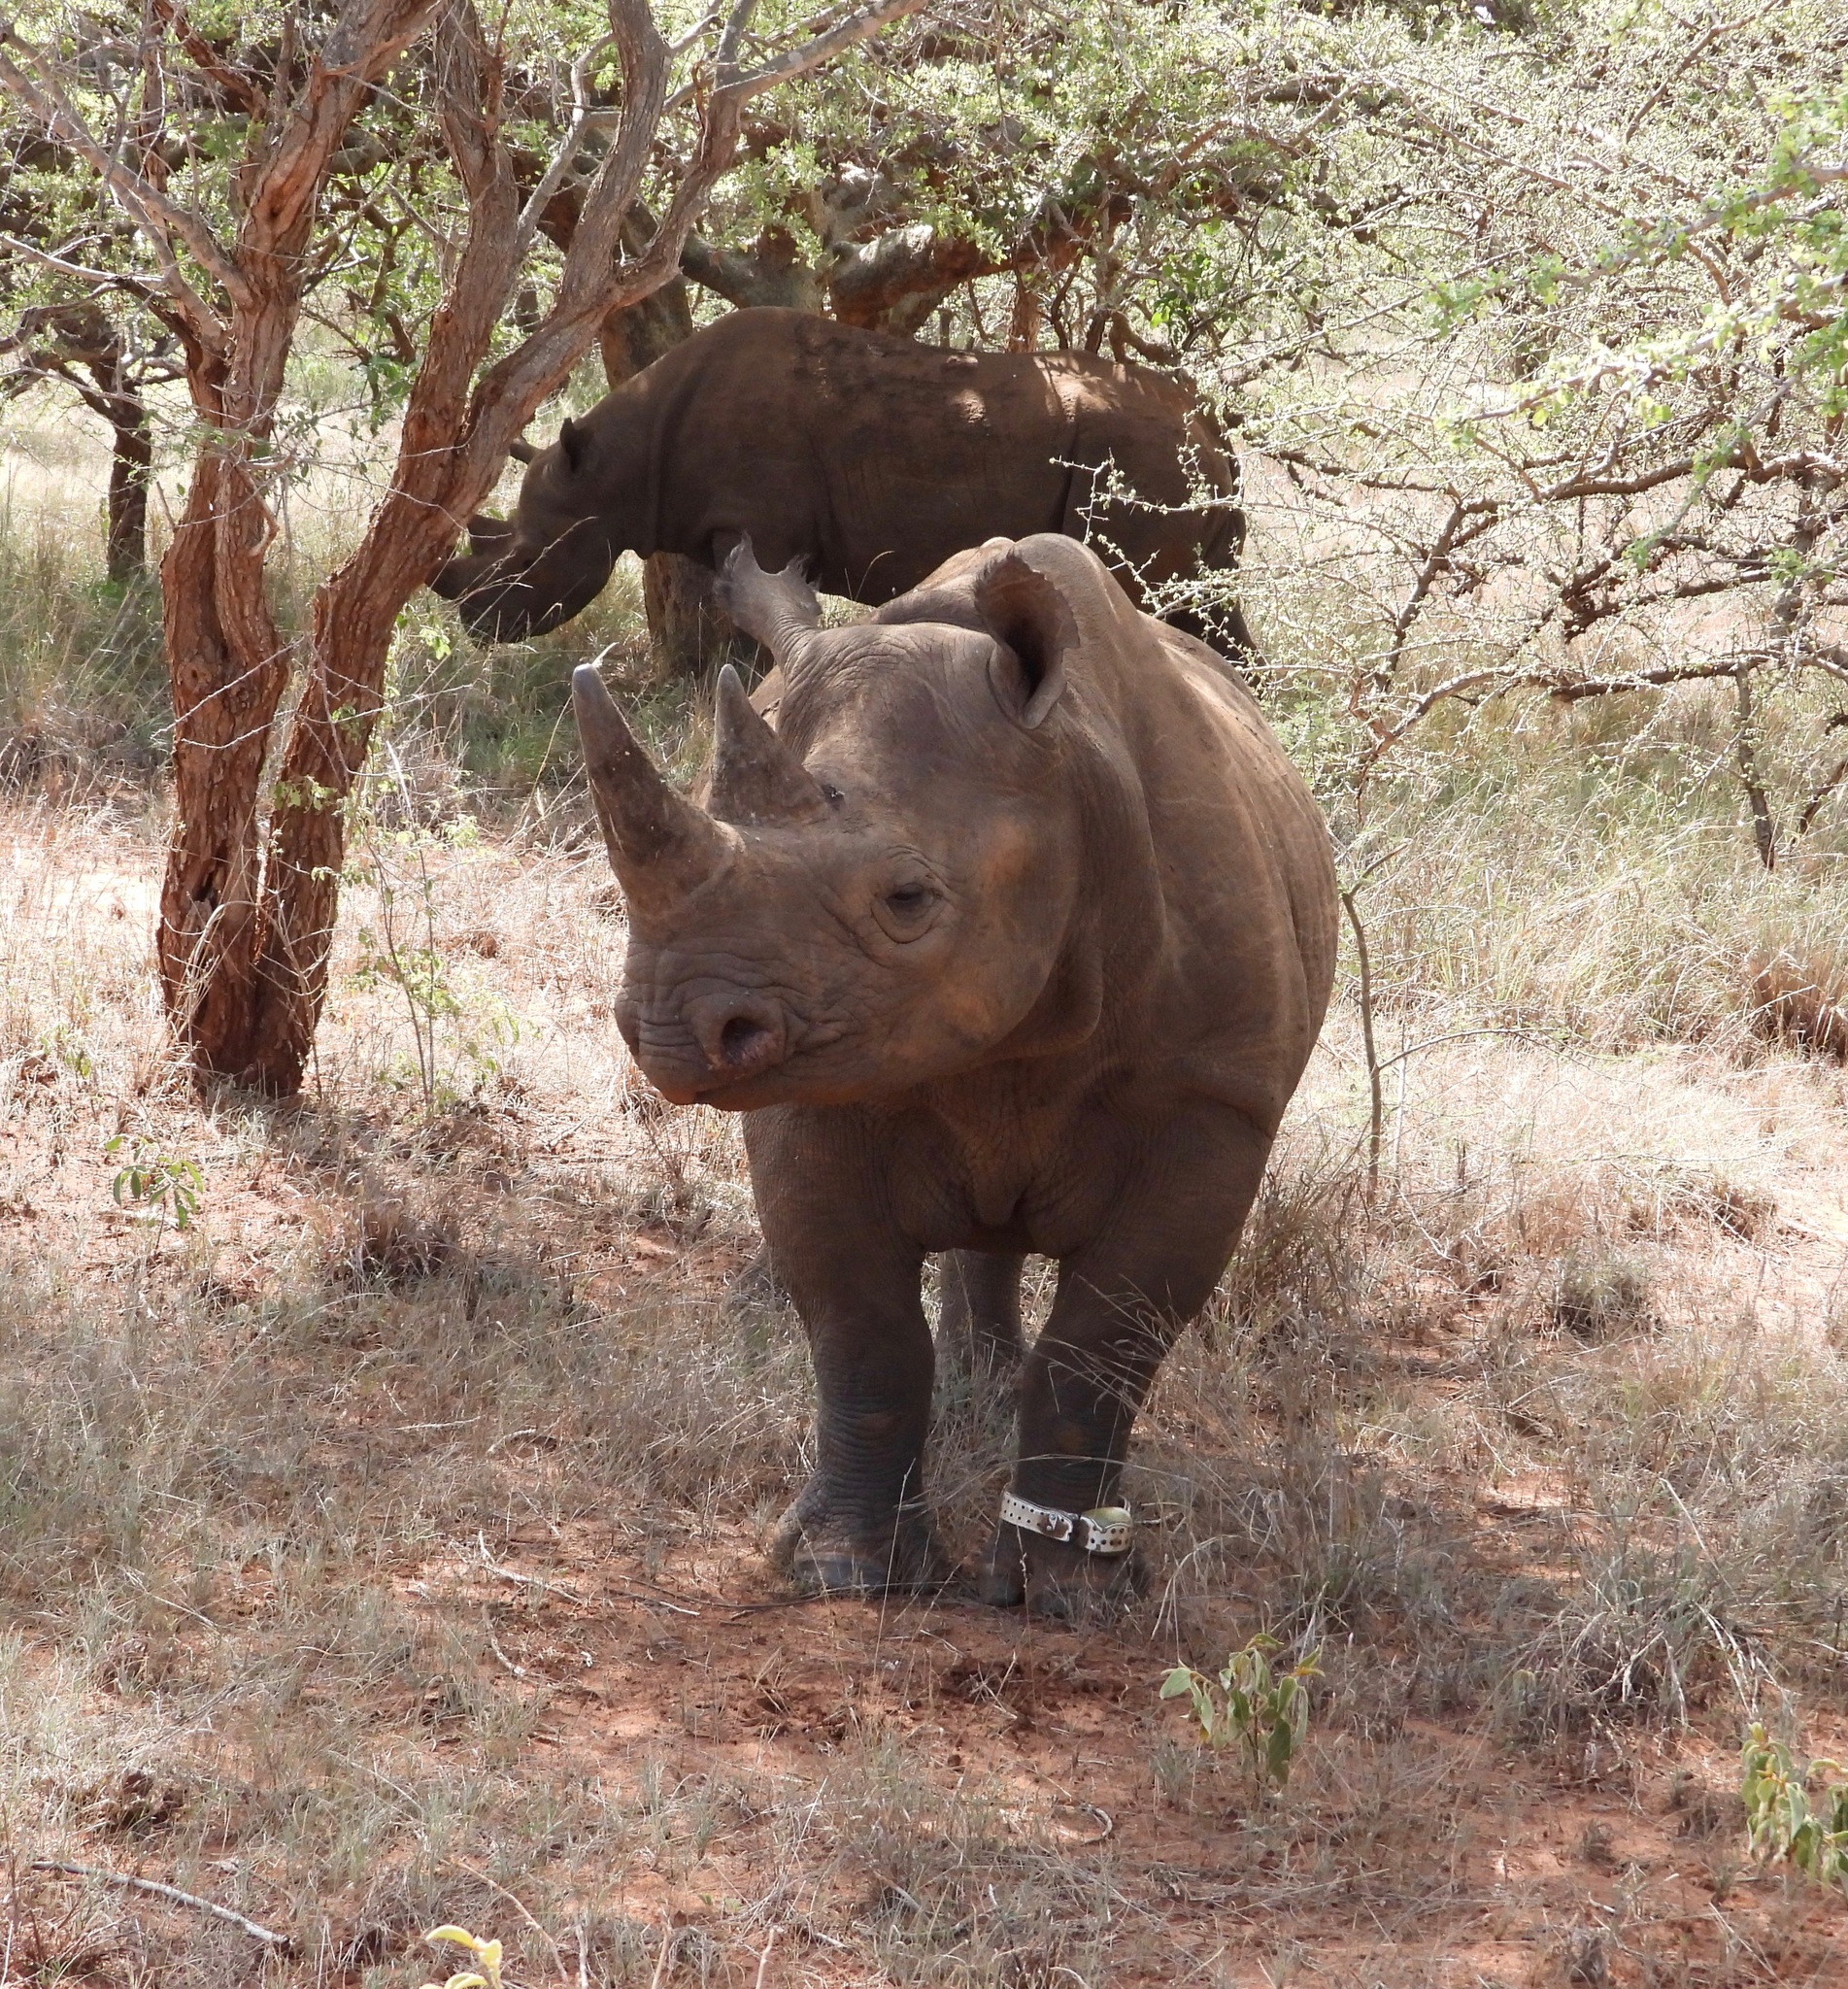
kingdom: Animalia
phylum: Chordata
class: Mammalia
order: Perissodactyla
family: Rhinocerotidae
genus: Diceros
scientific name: Diceros bicornis
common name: Black rhinoceros
